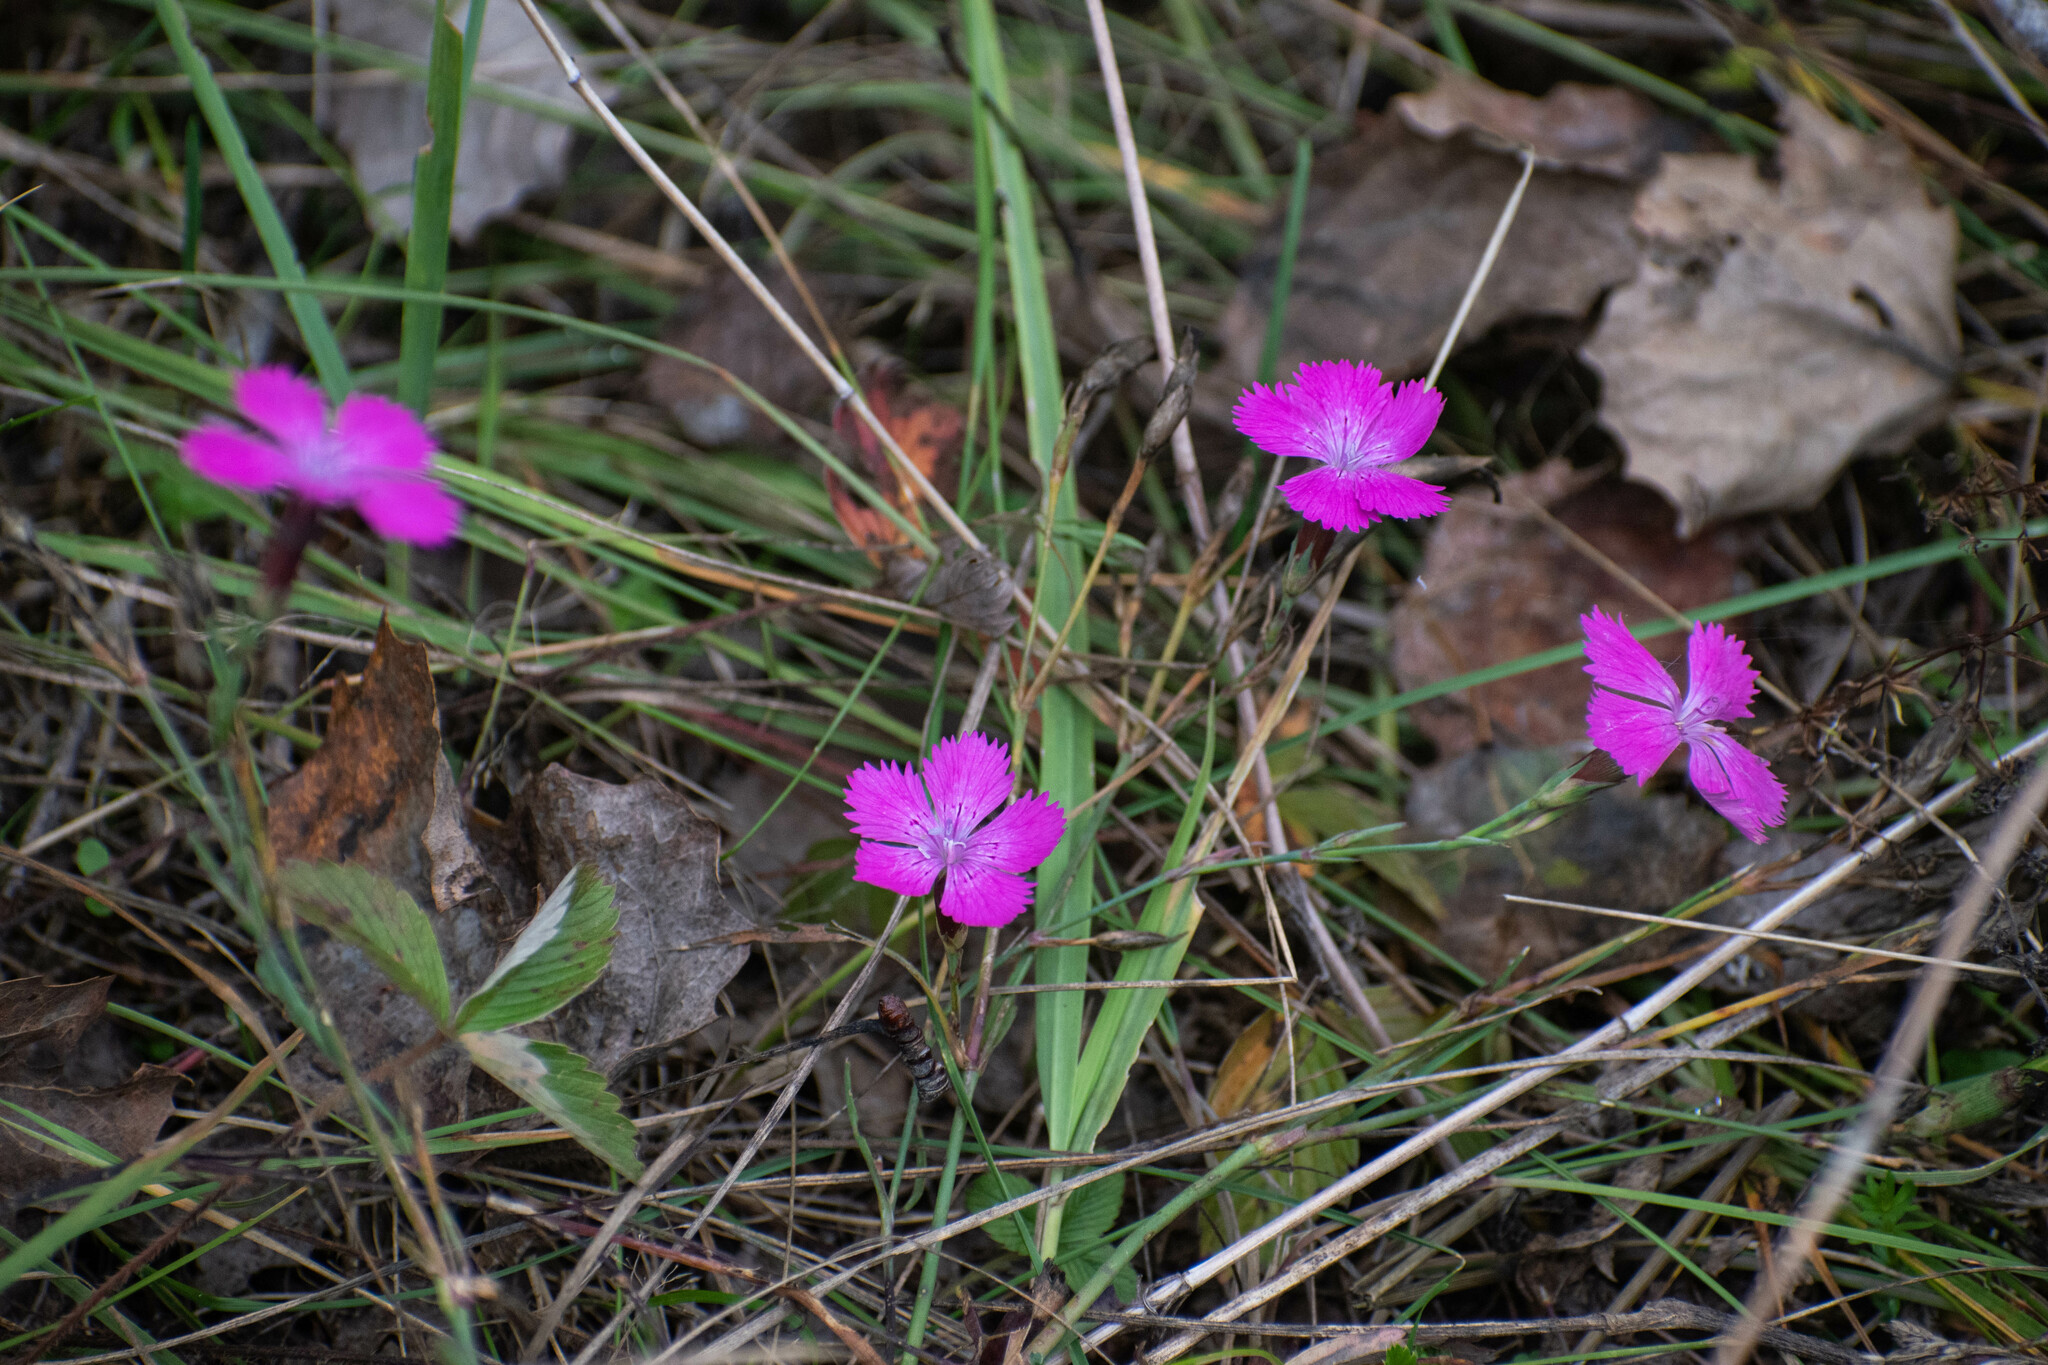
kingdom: Plantae
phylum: Tracheophyta
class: Magnoliopsida
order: Caryophyllales
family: Caryophyllaceae
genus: Dianthus
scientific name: Dianthus chinensis
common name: Rainbow pink
